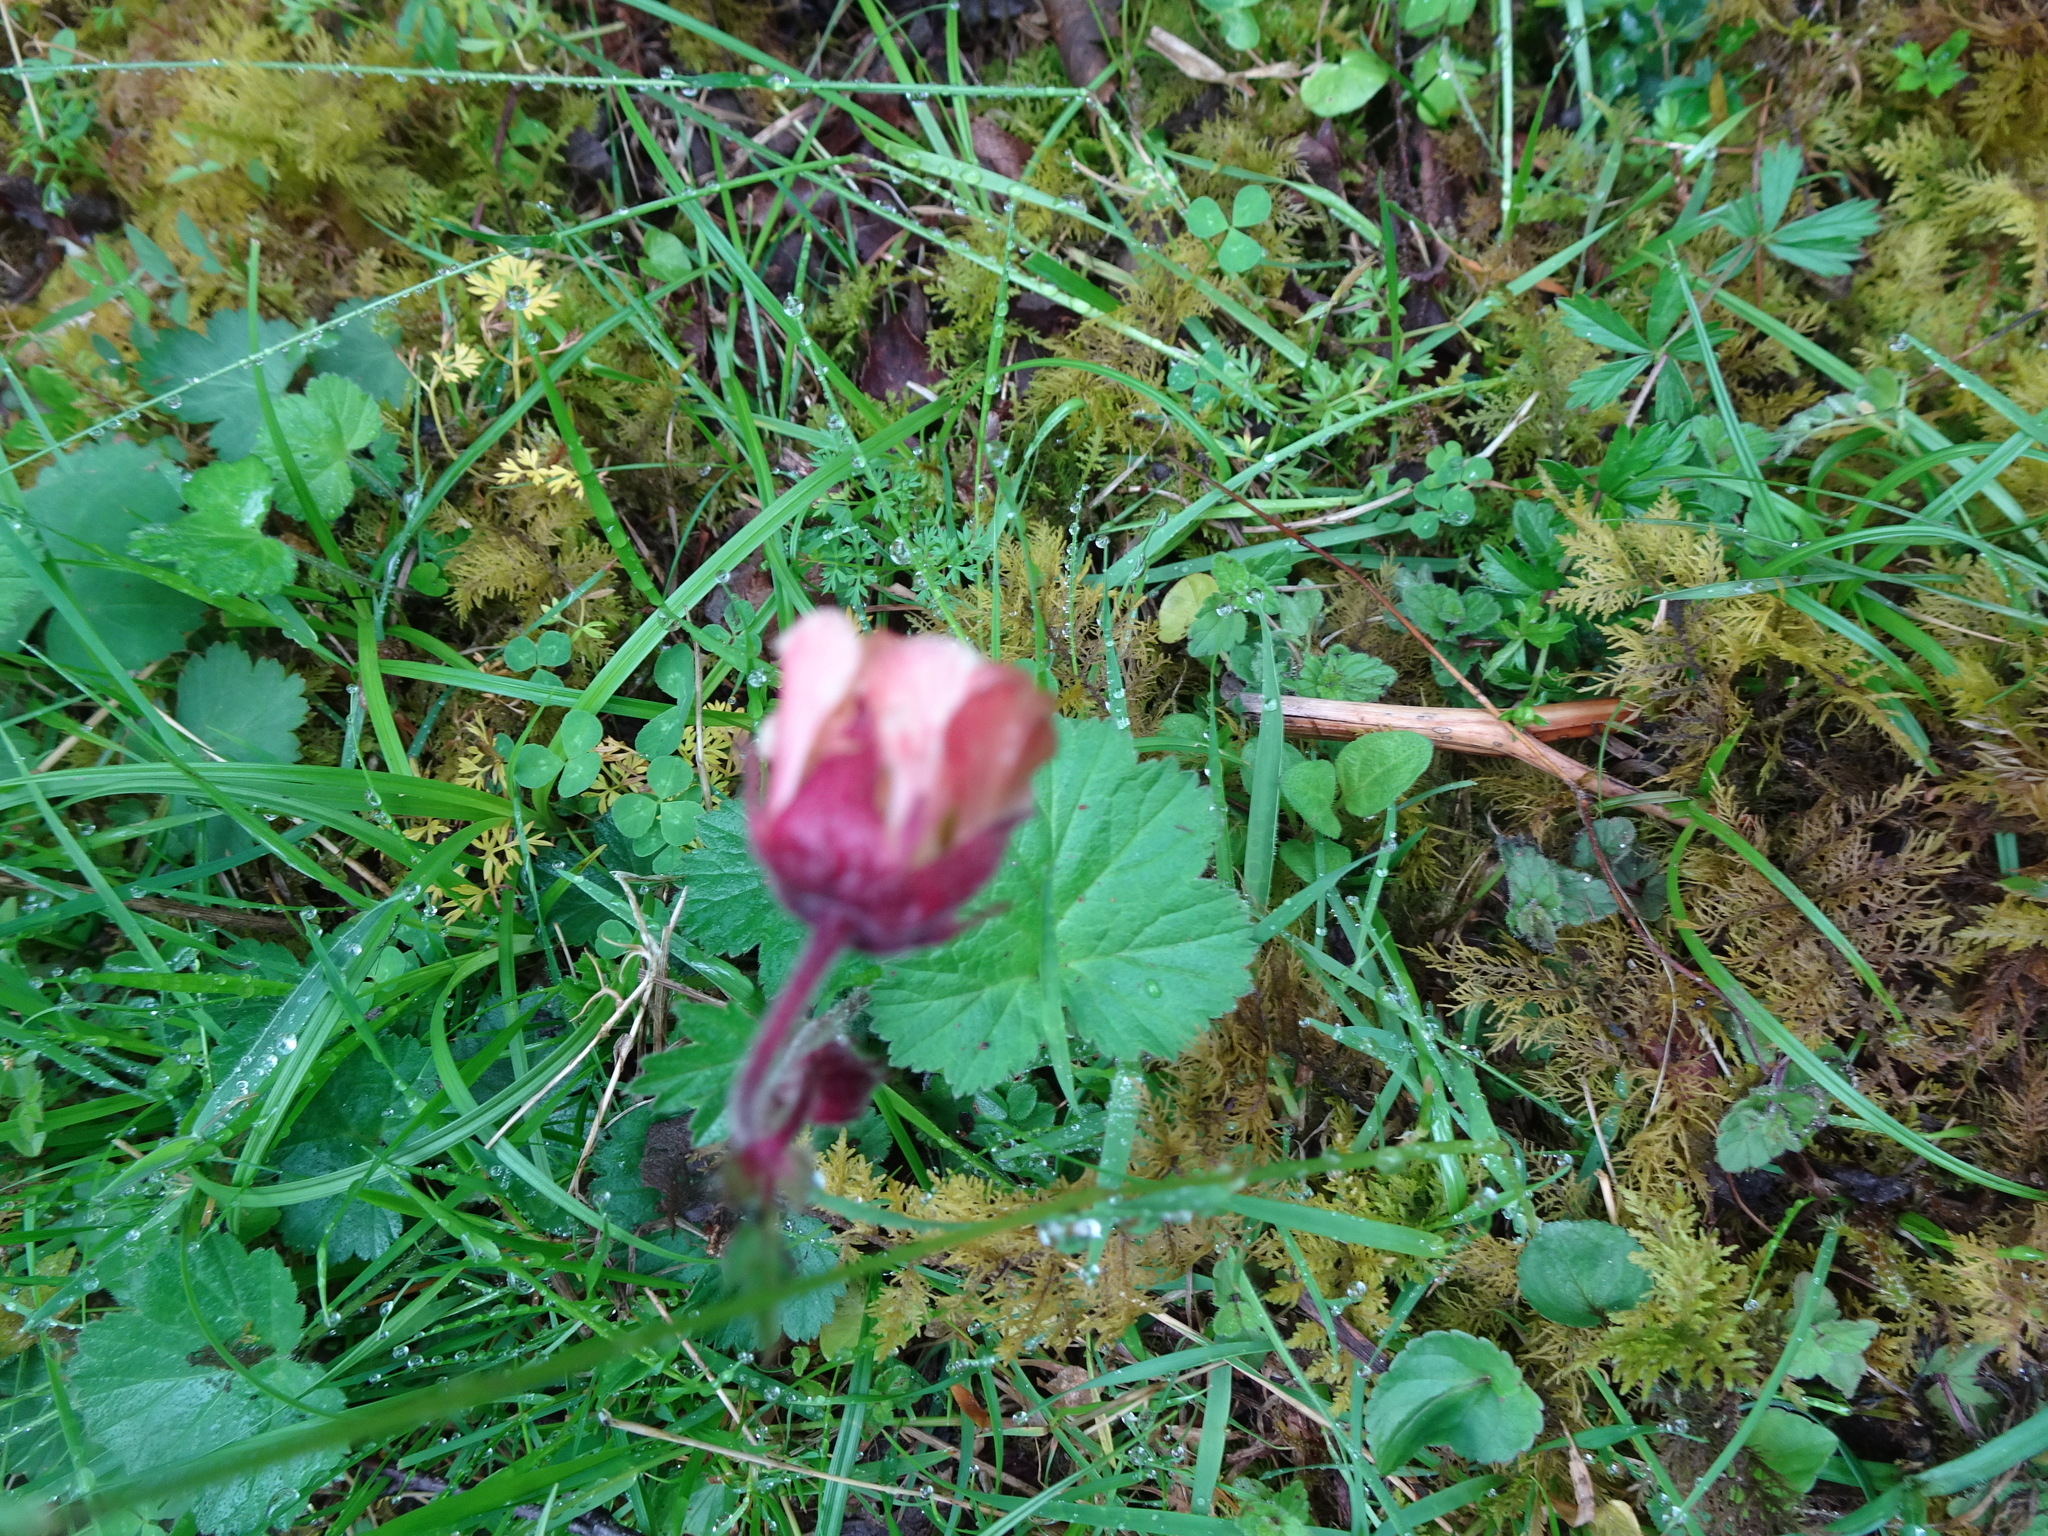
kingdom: Plantae
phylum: Tracheophyta
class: Magnoliopsida
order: Rosales
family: Rosaceae
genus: Geum
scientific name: Geum rivale
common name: Water avens
